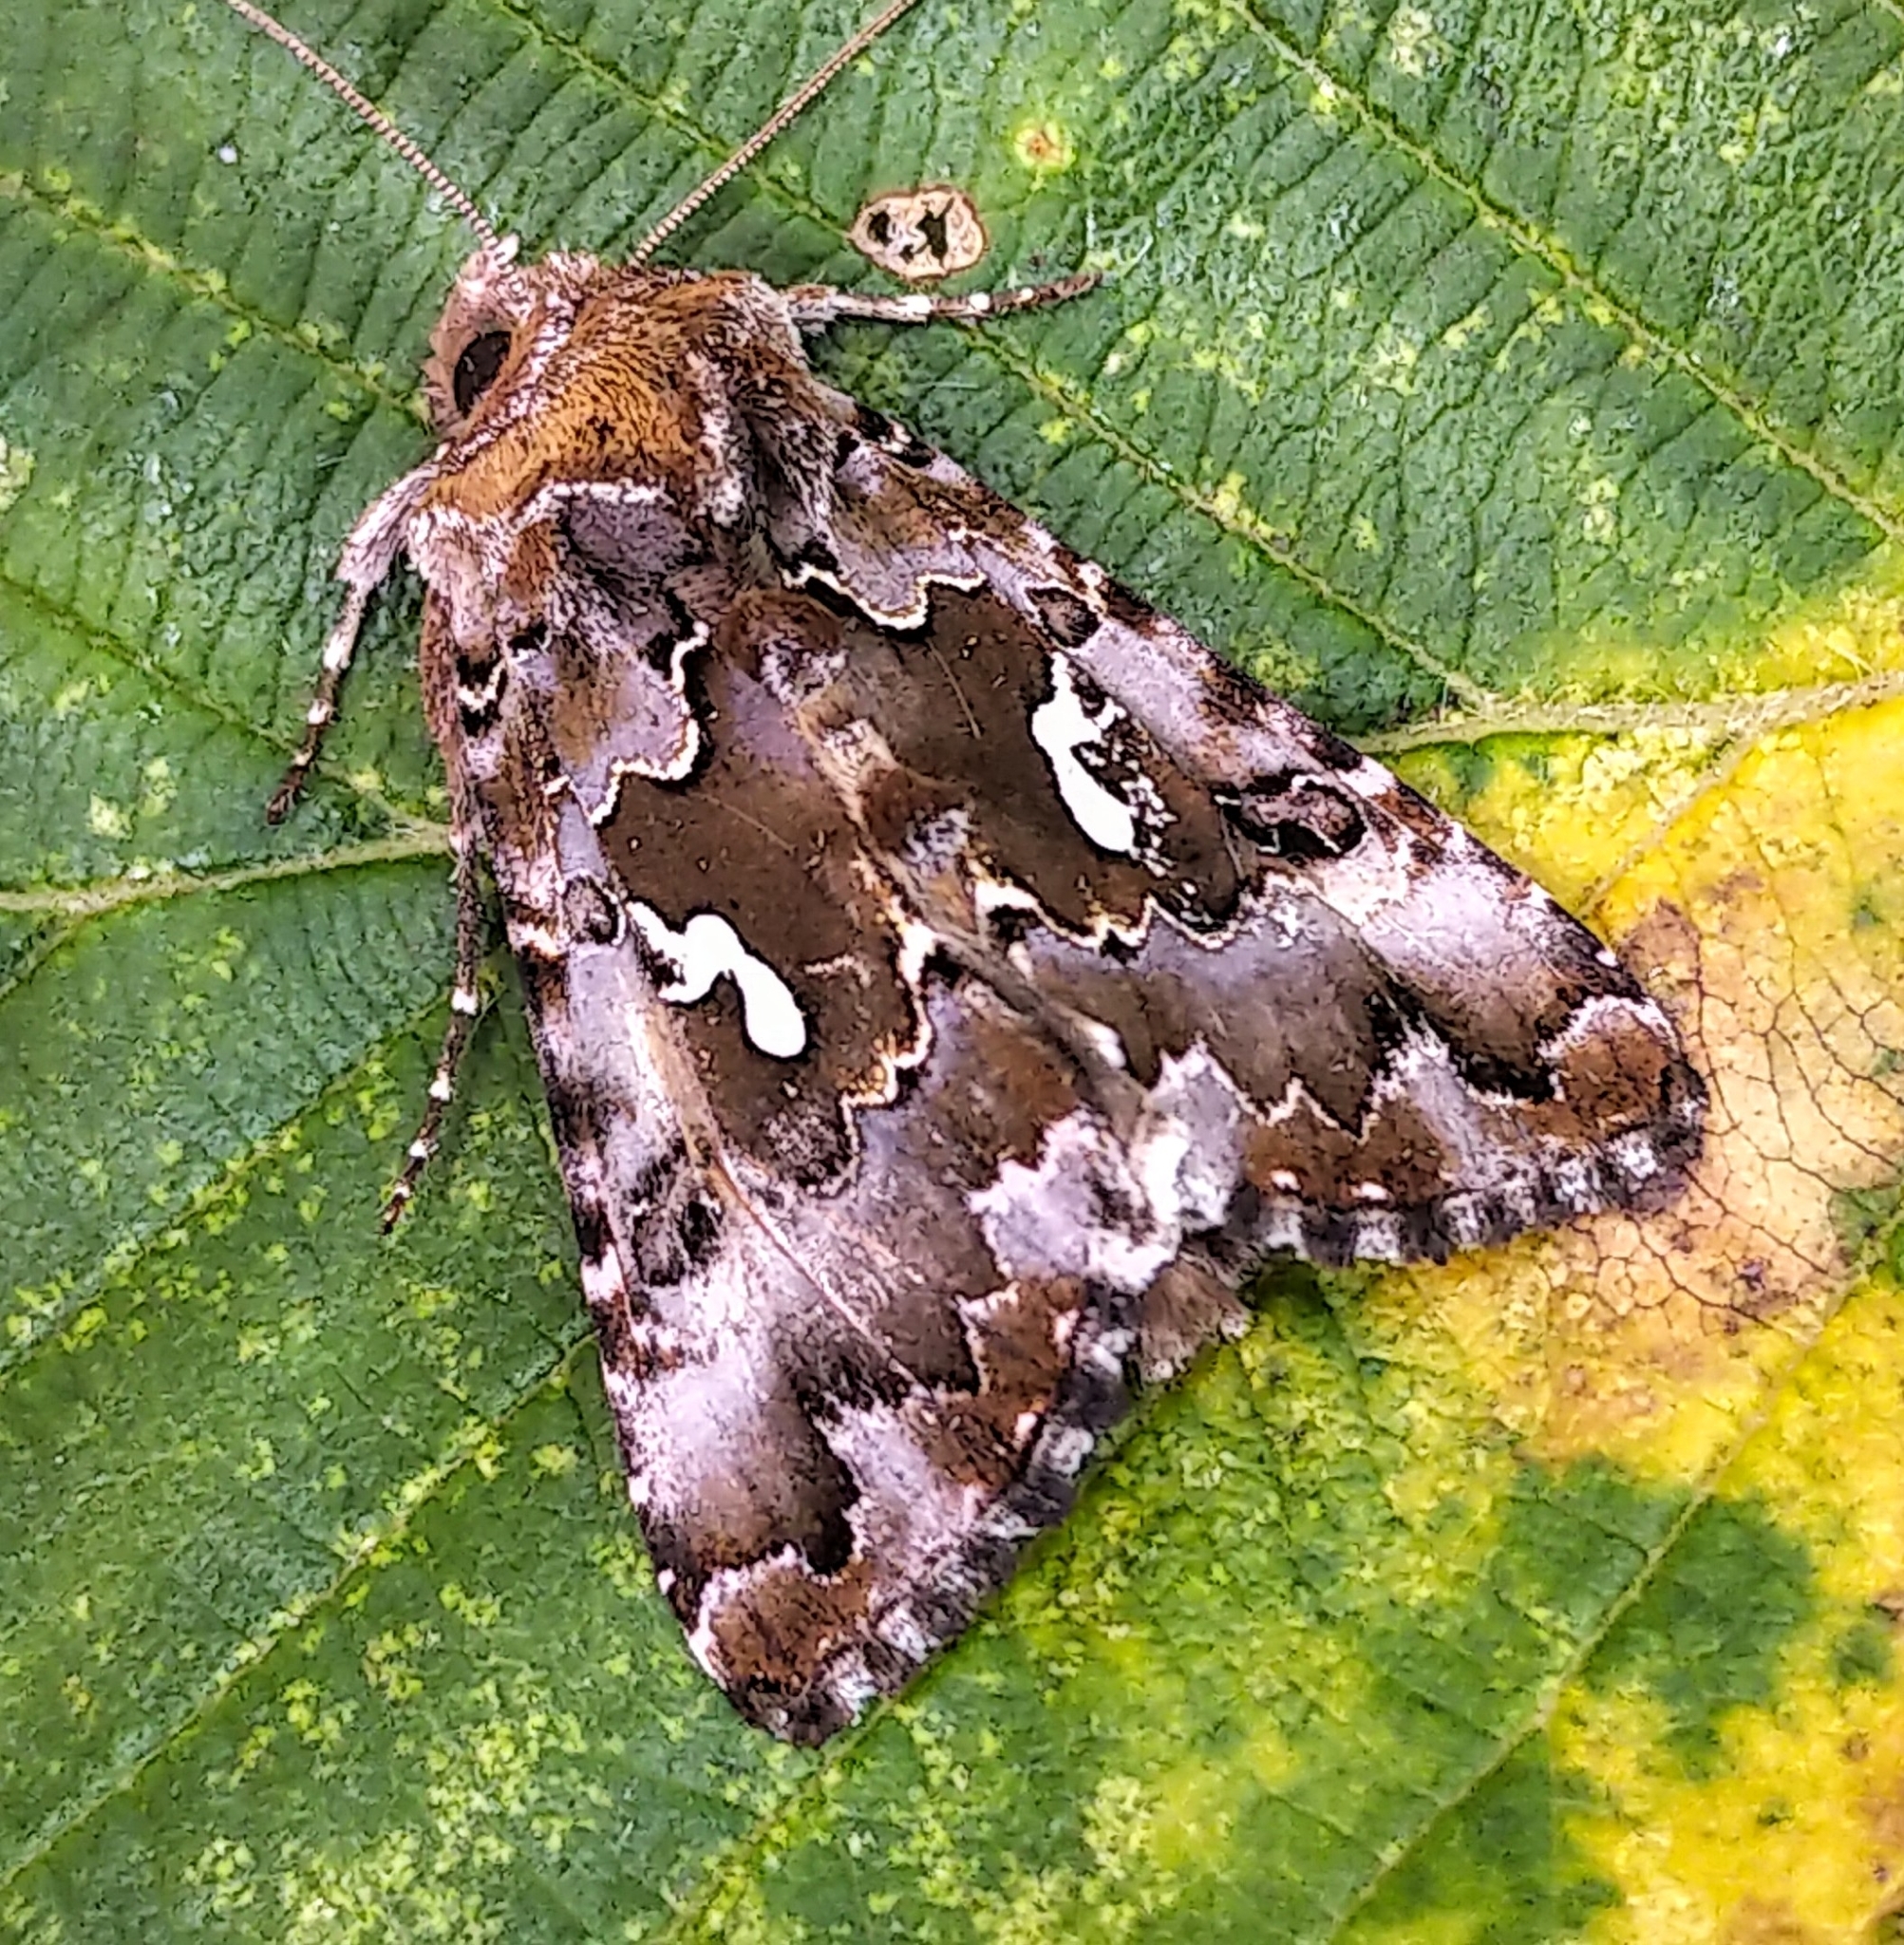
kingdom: Animalia
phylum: Arthropoda
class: Insecta
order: Lepidoptera
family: Noctuidae
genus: Autographa
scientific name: Autographa corusca
